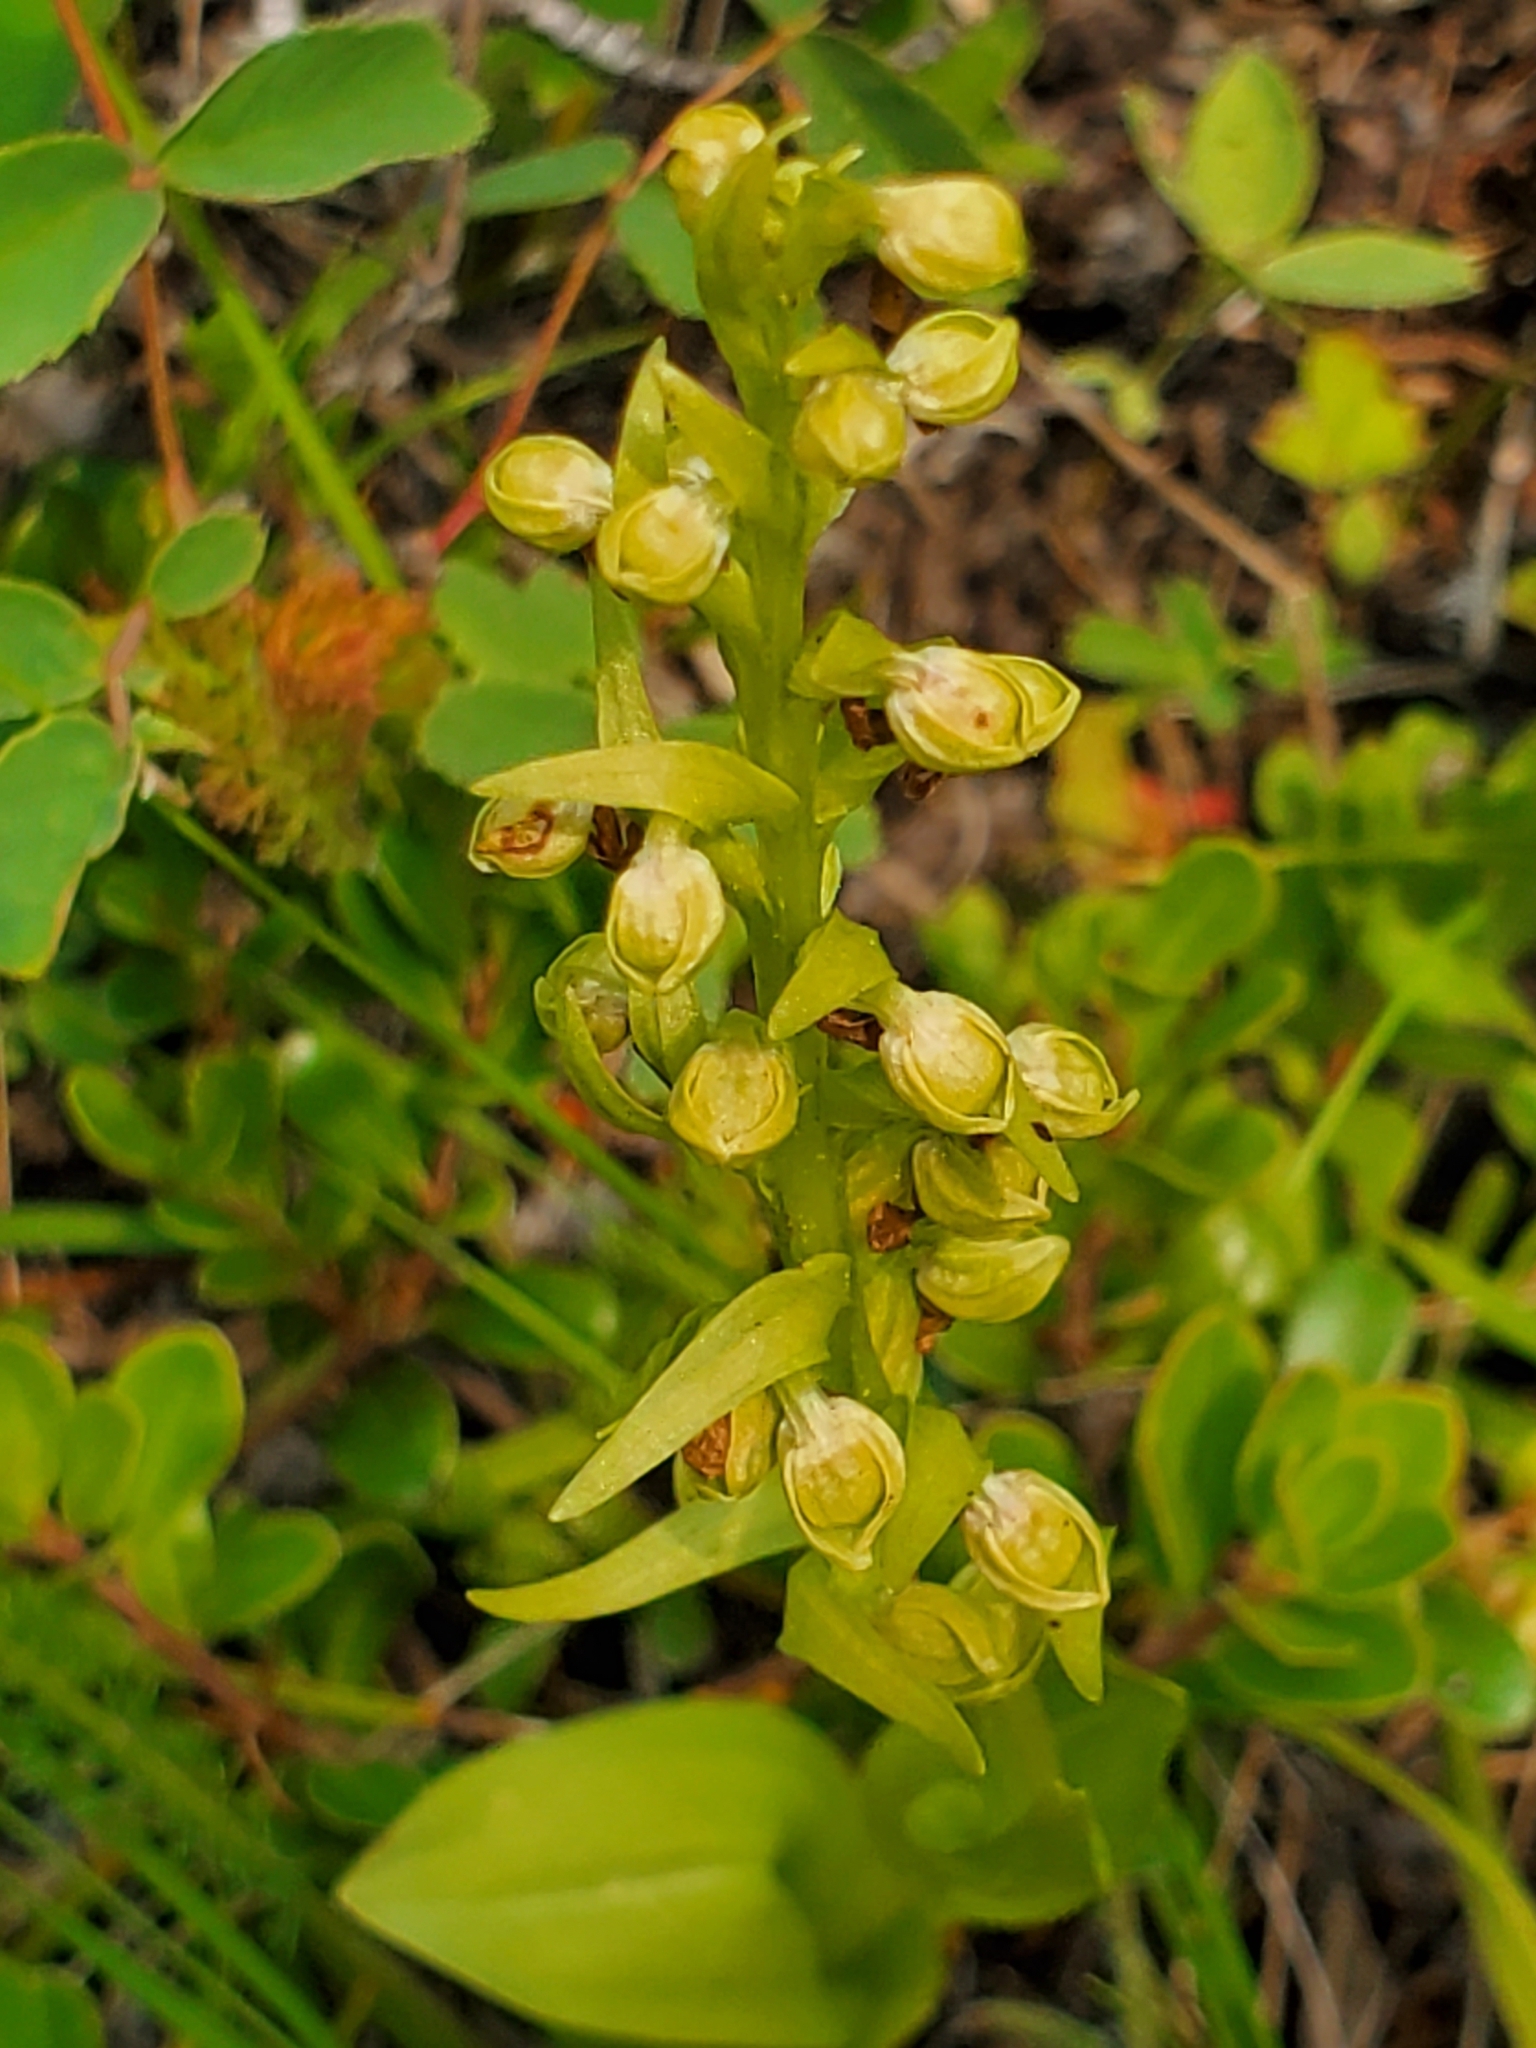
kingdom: Plantae
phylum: Tracheophyta
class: Liliopsida
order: Asparagales
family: Orchidaceae
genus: Dactylorhiza
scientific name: Dactylorhiza viridis
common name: Longbract frog orchid
